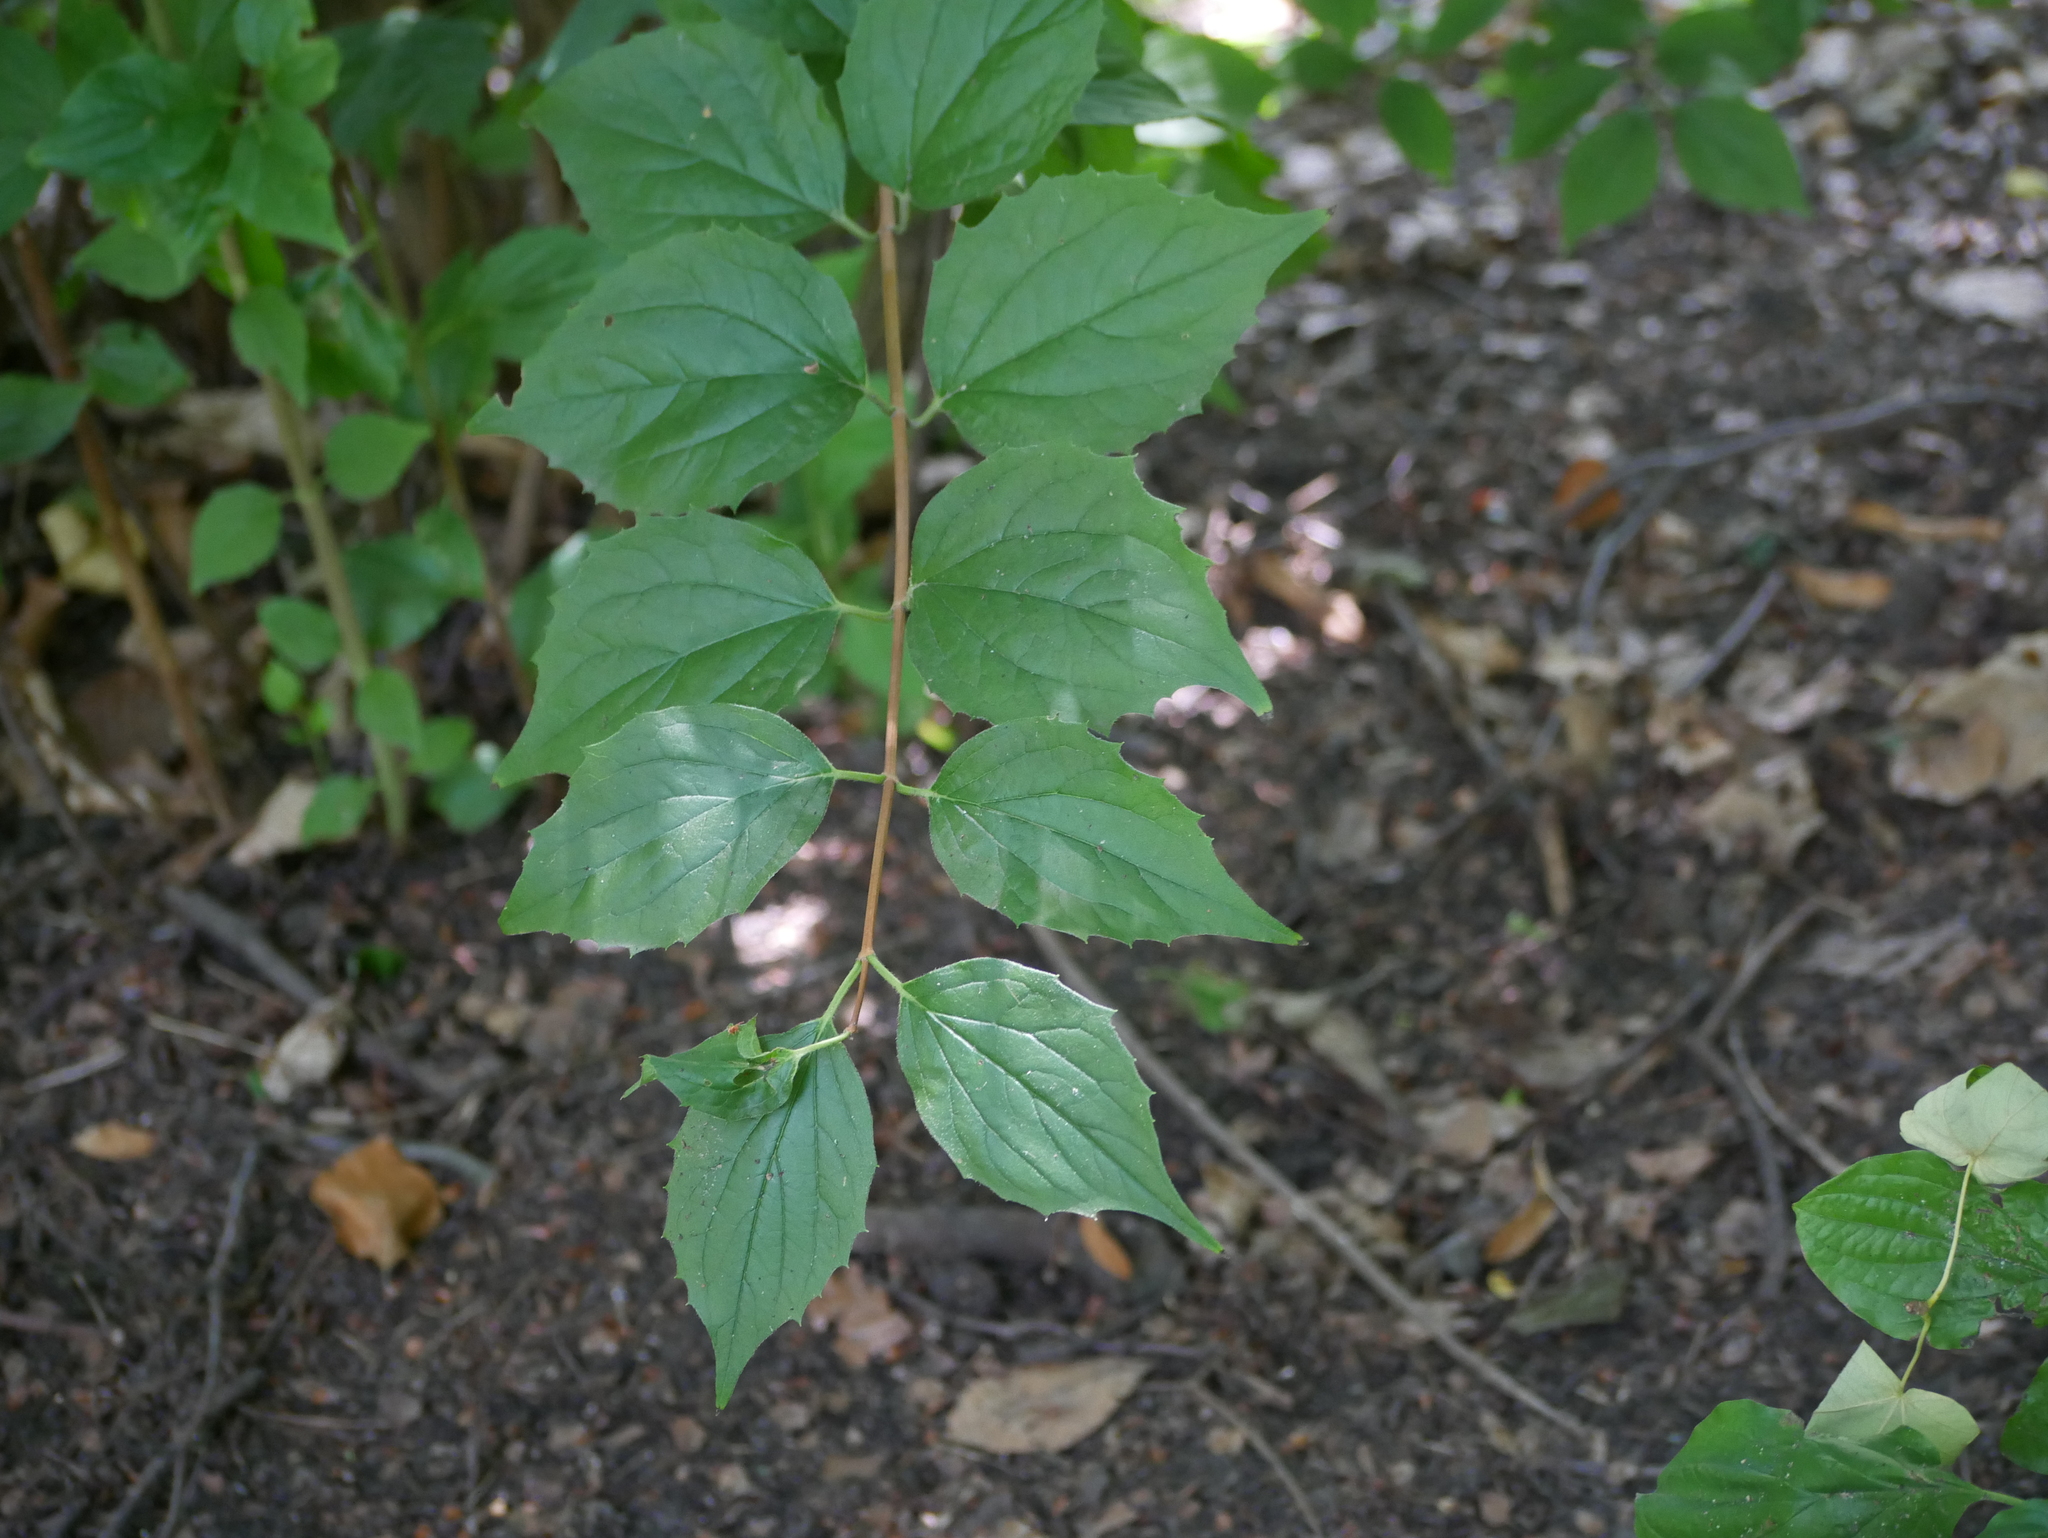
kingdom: Plantae
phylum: Tracheophyta
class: Magnoliopsida
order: Cornales
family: Hydrangeaceae
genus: Philadelphus
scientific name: Philadelphus coronarius
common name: Mock orange
